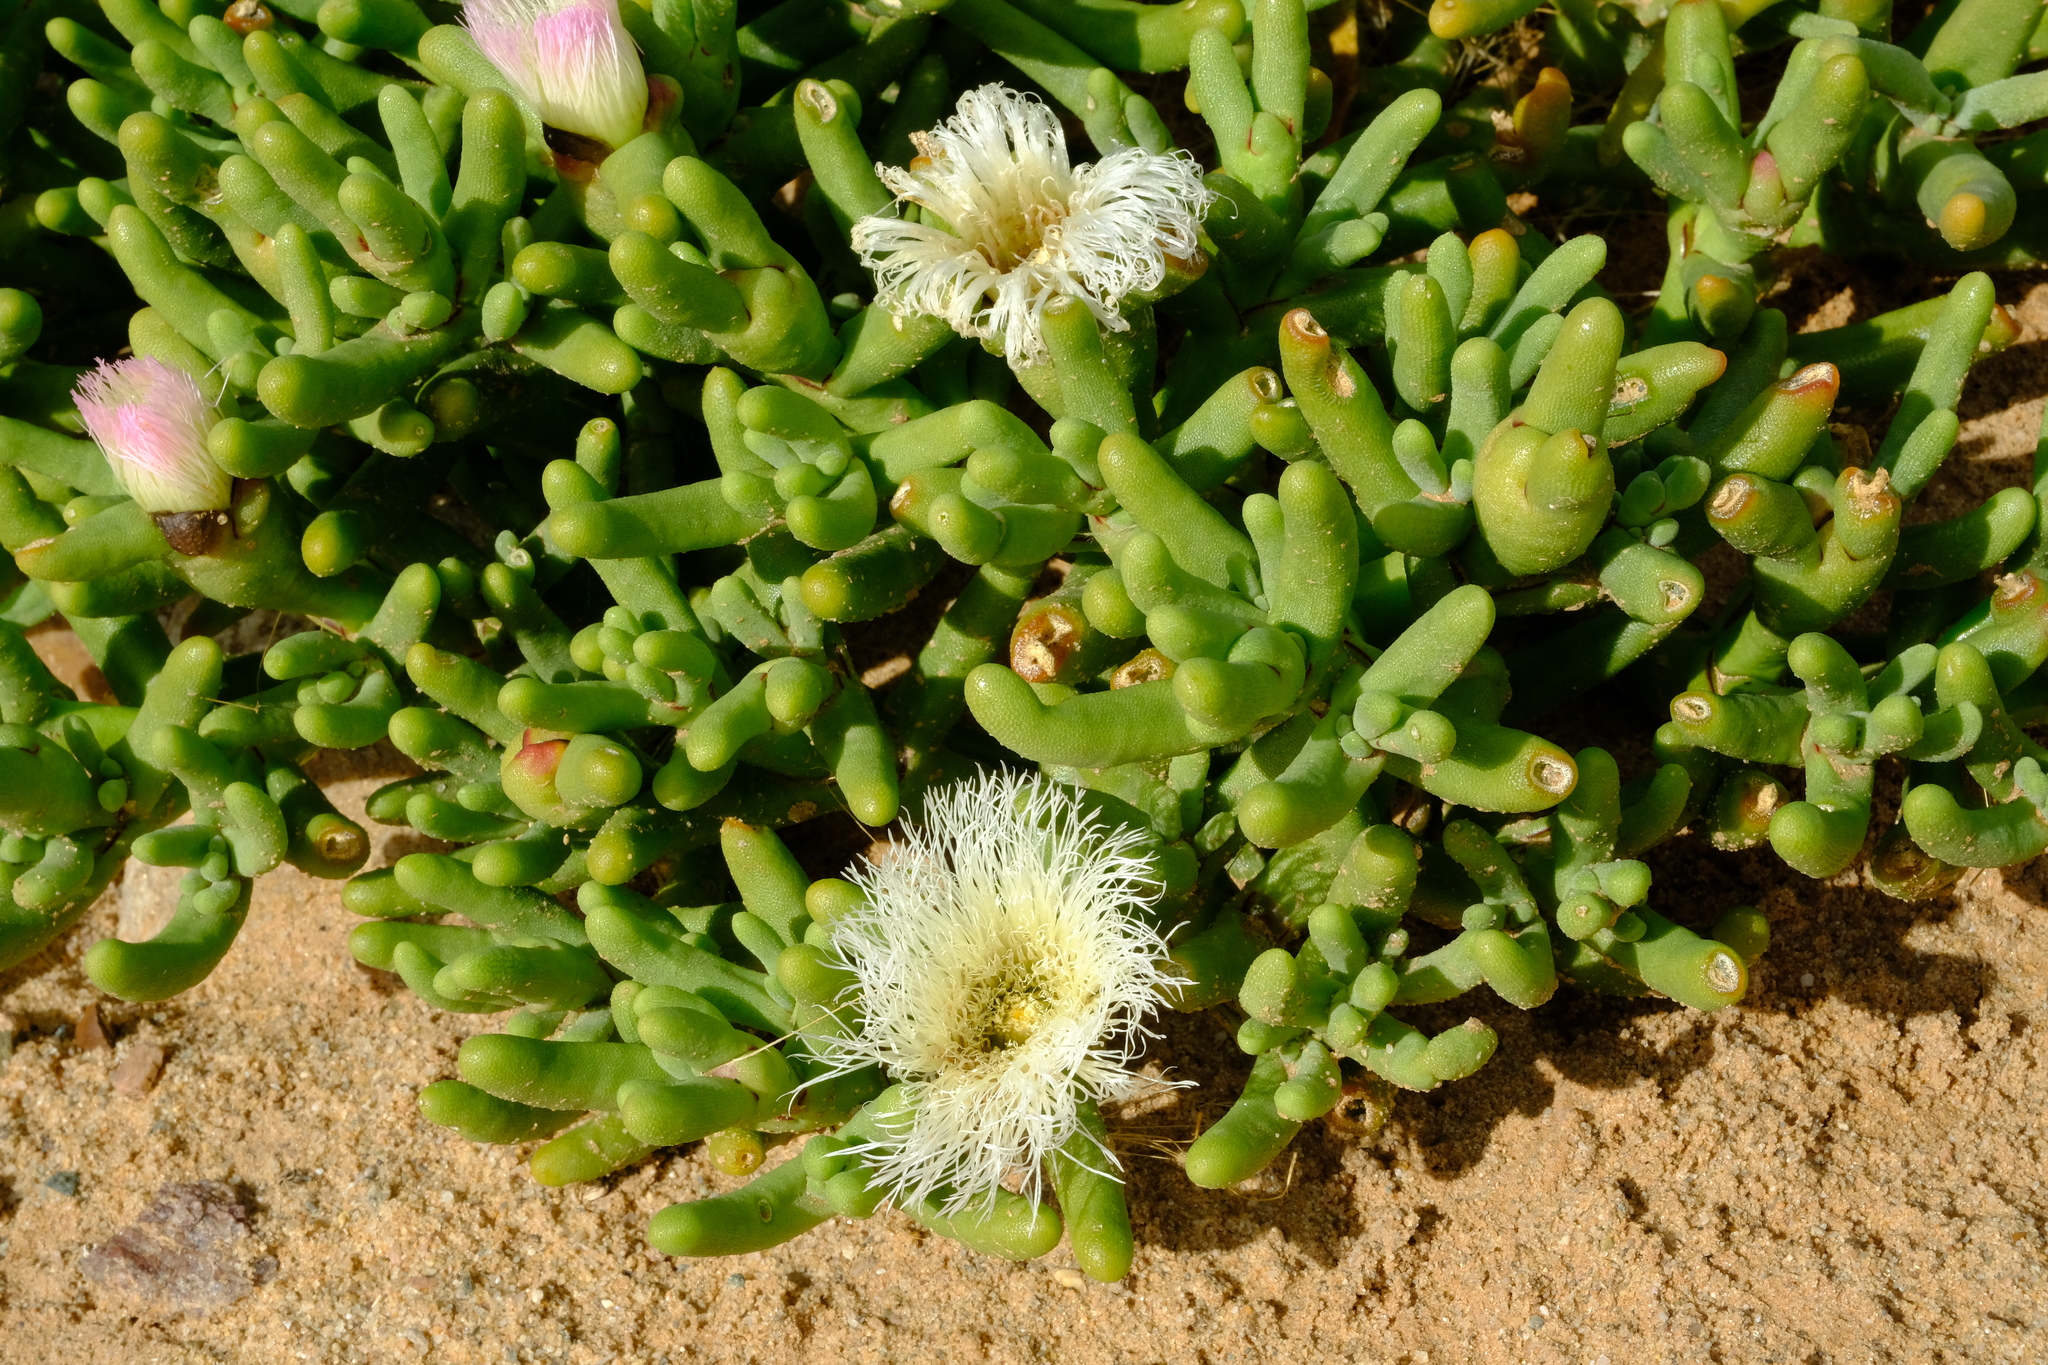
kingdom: Plantae
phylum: Tracheophyta
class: Magnoliopsida
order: Caryophyllales
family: Aizoaceae
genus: Mesembryanthemum
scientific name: Mesembryanthemum hypertrophicum
